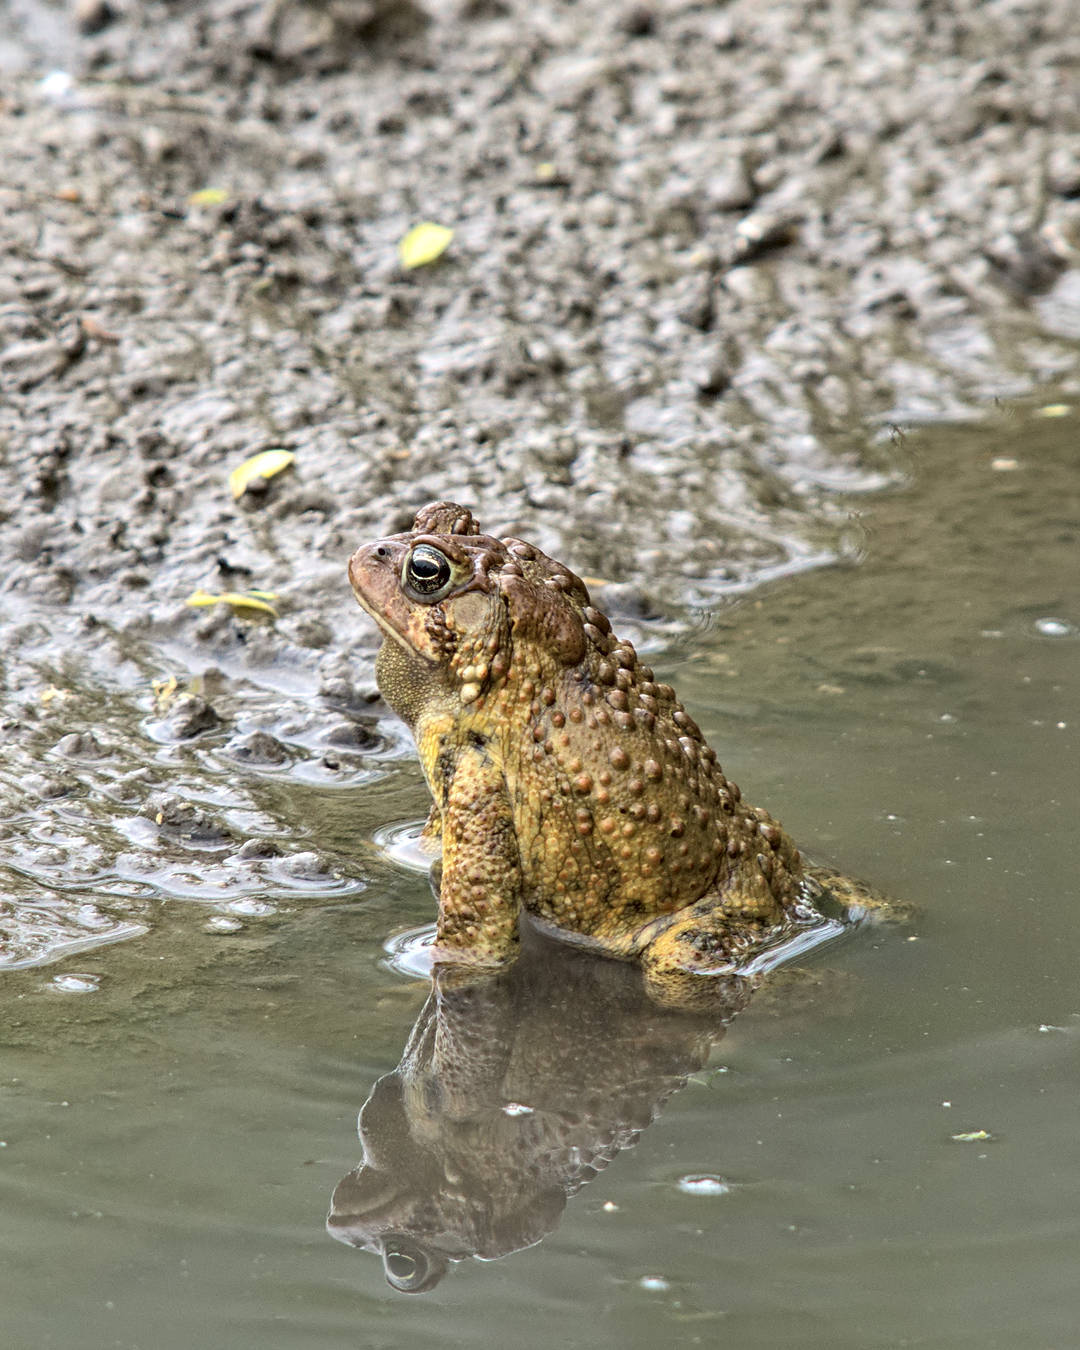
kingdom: Animalia
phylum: Chordata
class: Amphibia
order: Anura
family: Bufonidae
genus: Anaxyrus
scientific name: Anaxyrus americanus
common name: American toad
